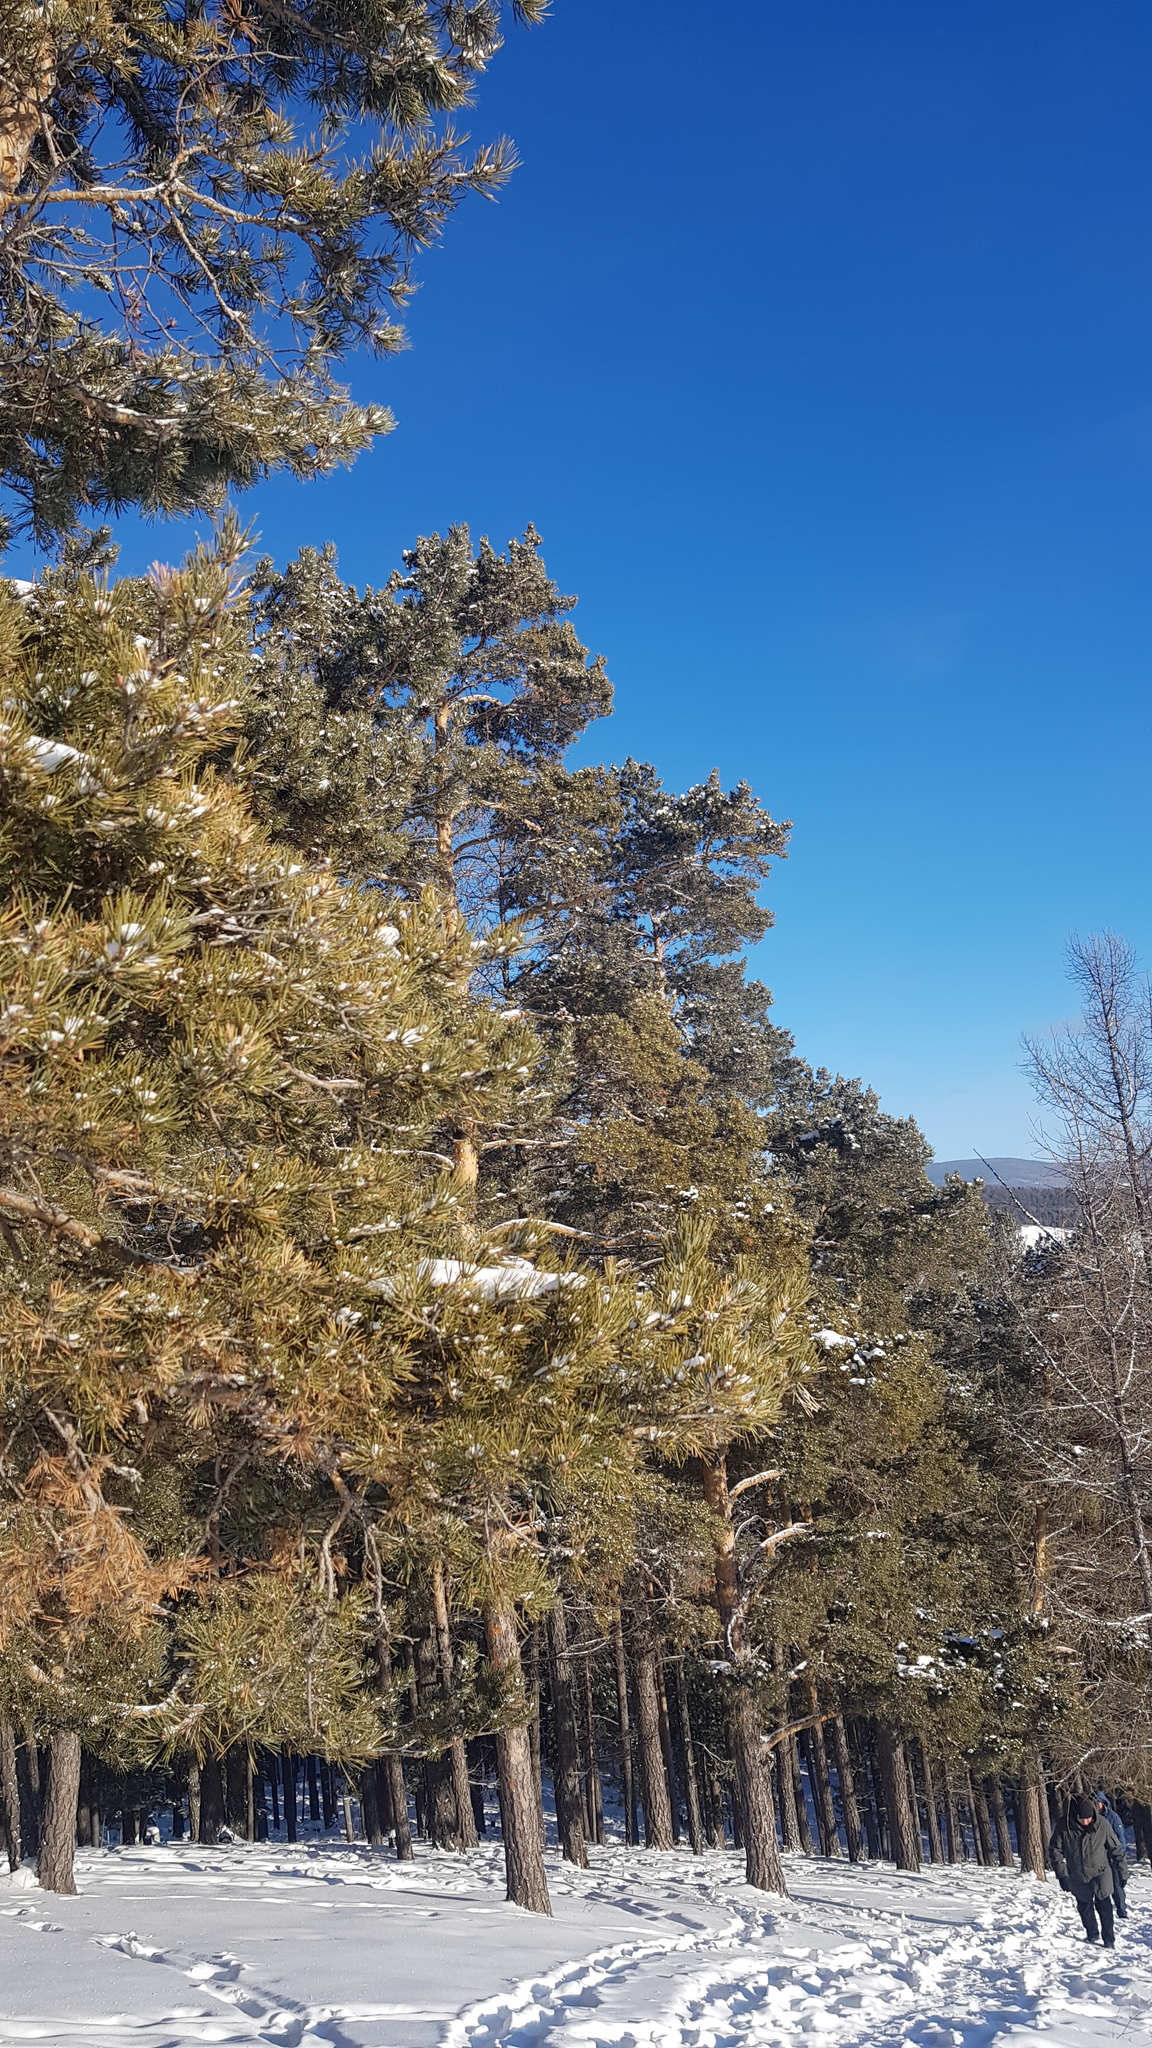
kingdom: Plantae
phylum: Tracheophyta
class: Pinopsida
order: Pinales
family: Pinaceae
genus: Pinus
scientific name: Pinus sylvestris
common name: Scots pine
